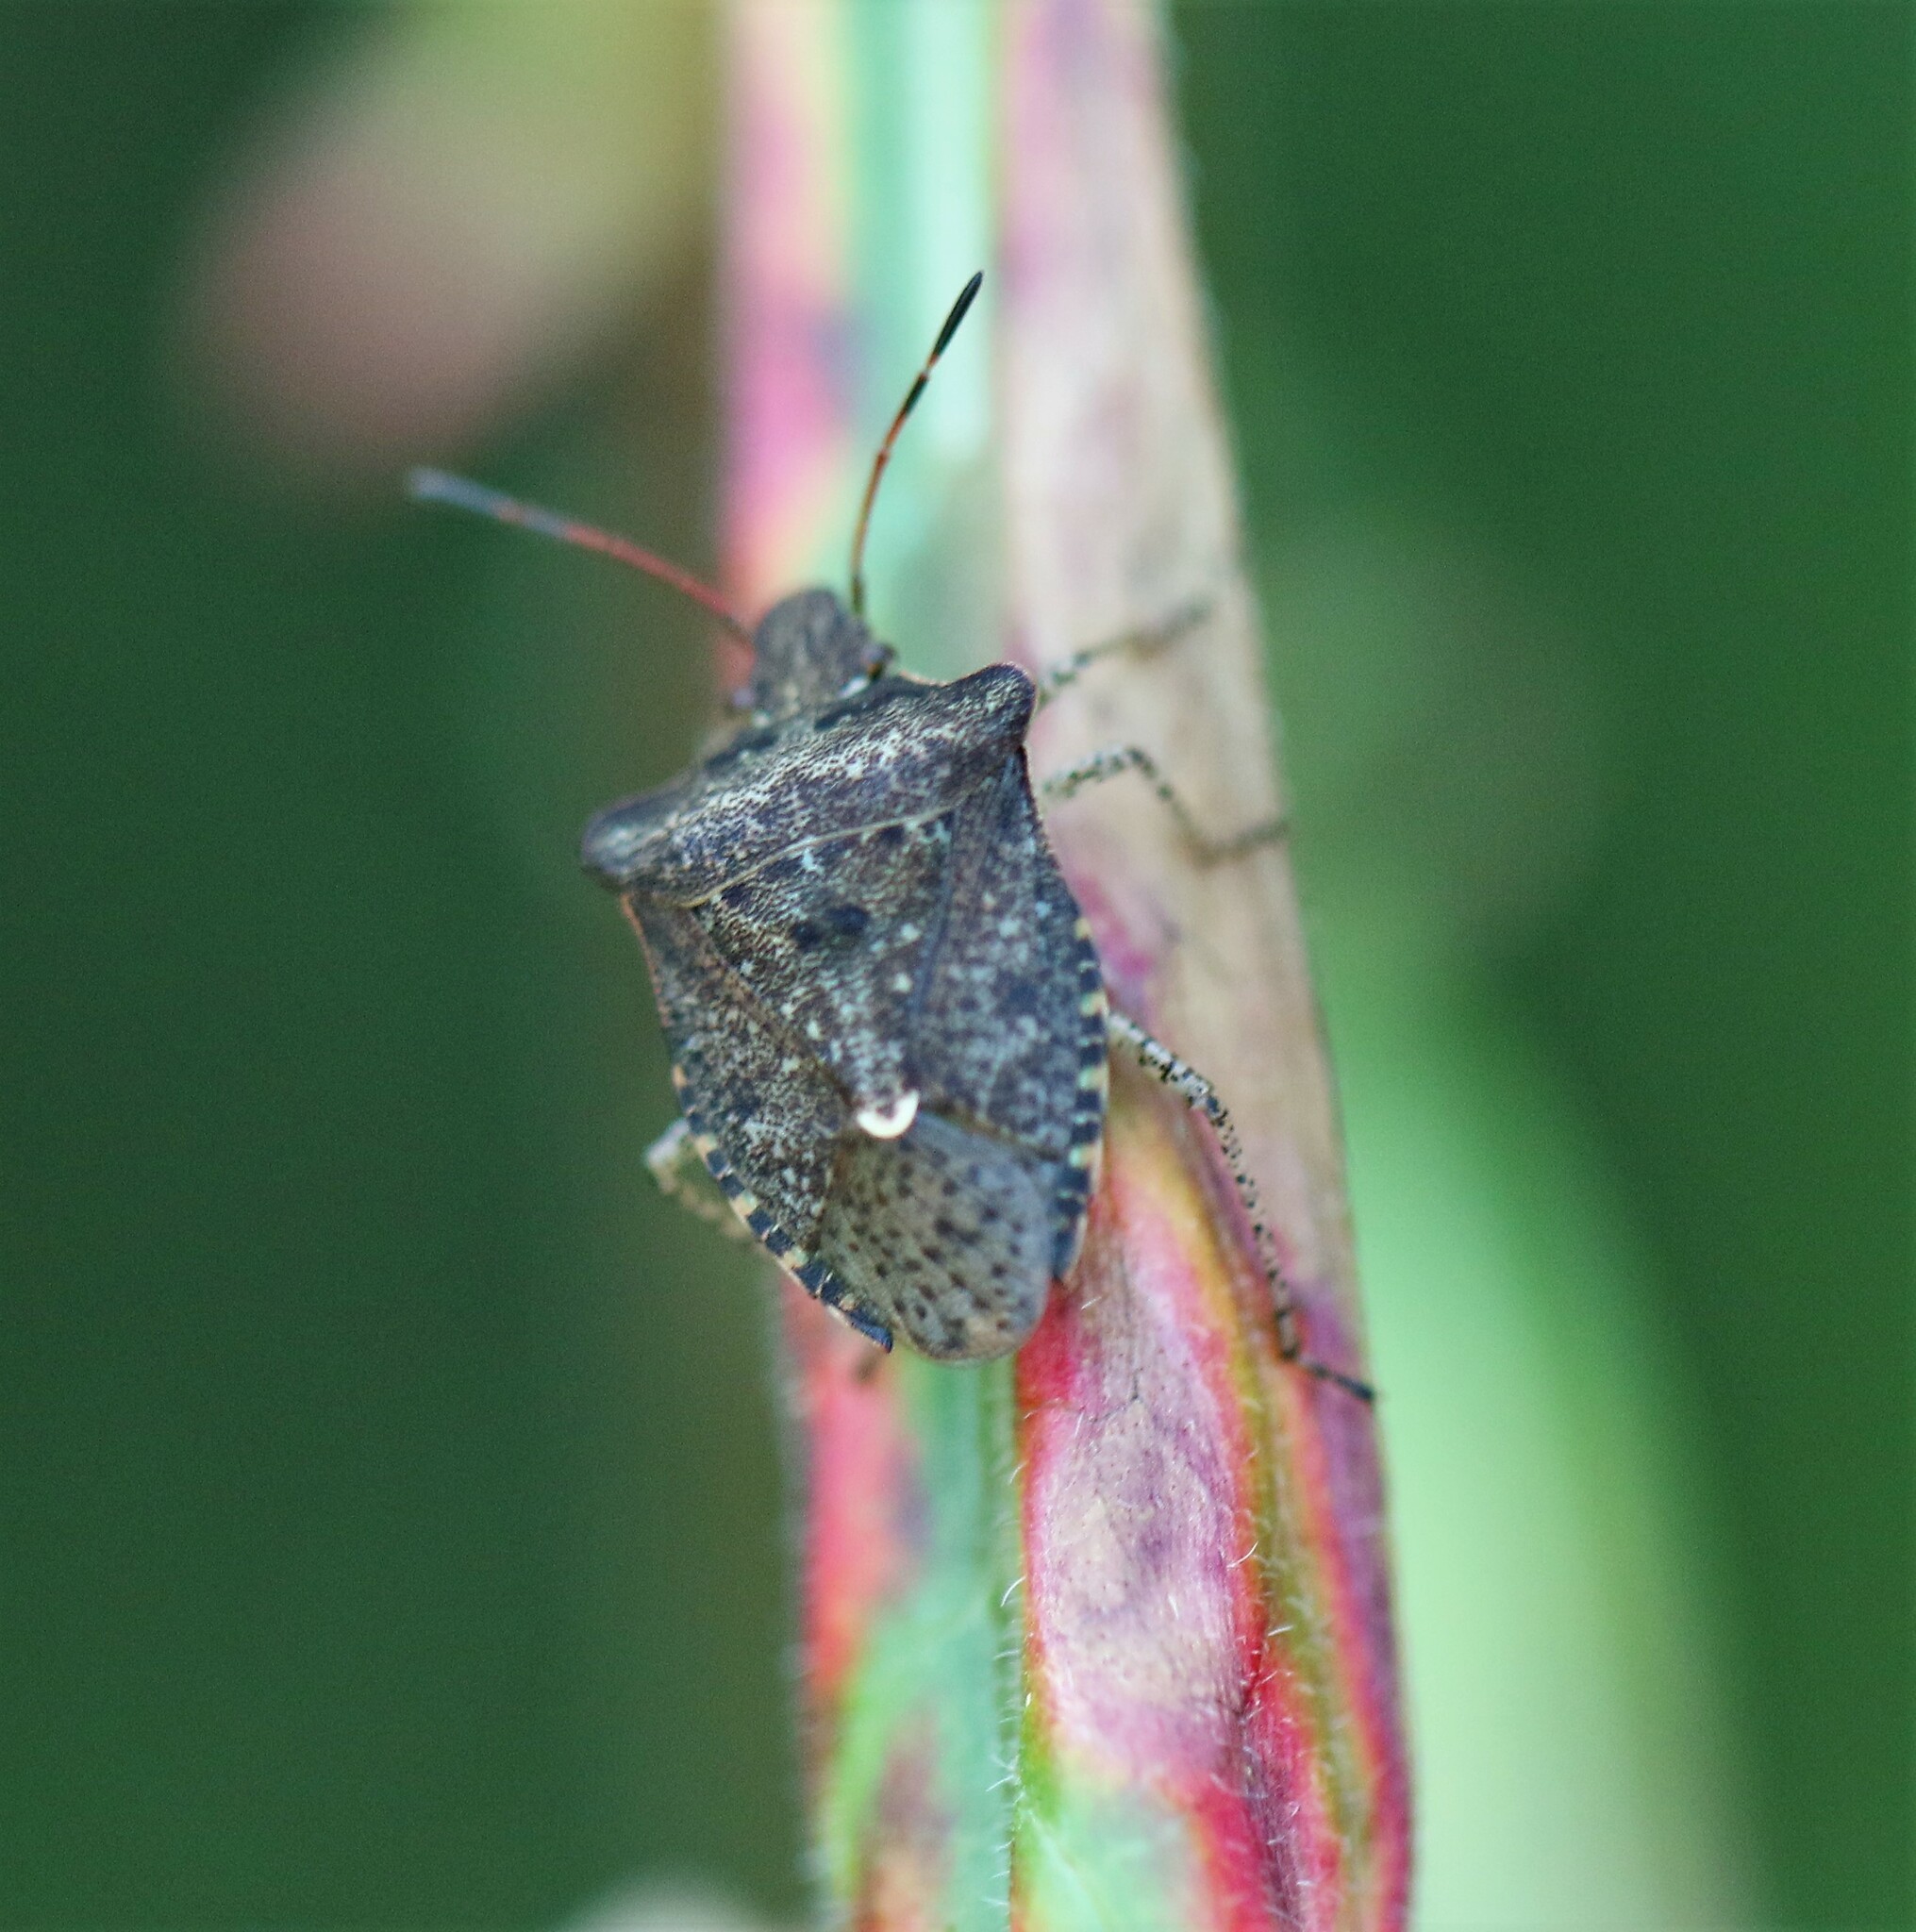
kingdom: Animalia
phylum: Arthropoda
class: Insecta
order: Hemiptera
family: Pentatomidae
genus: Euschistus
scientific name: Euschistus tristigmus
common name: Dusky stink bug
